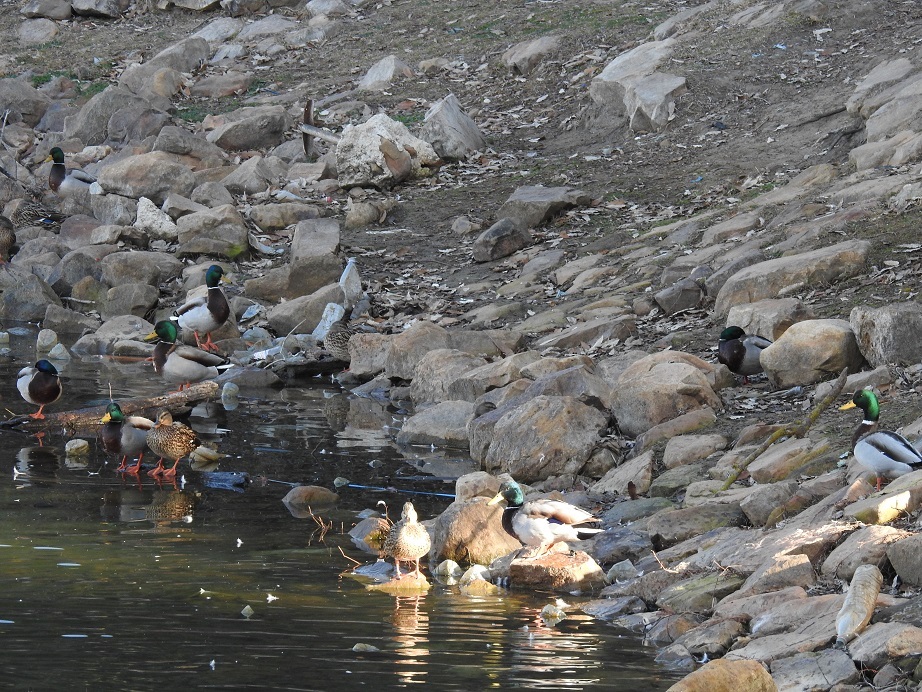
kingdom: Animalia
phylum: Chordata
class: Aves
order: Anseriformes
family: Anatidae
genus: Anas
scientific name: Anas platyrhynchos
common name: Mallard
